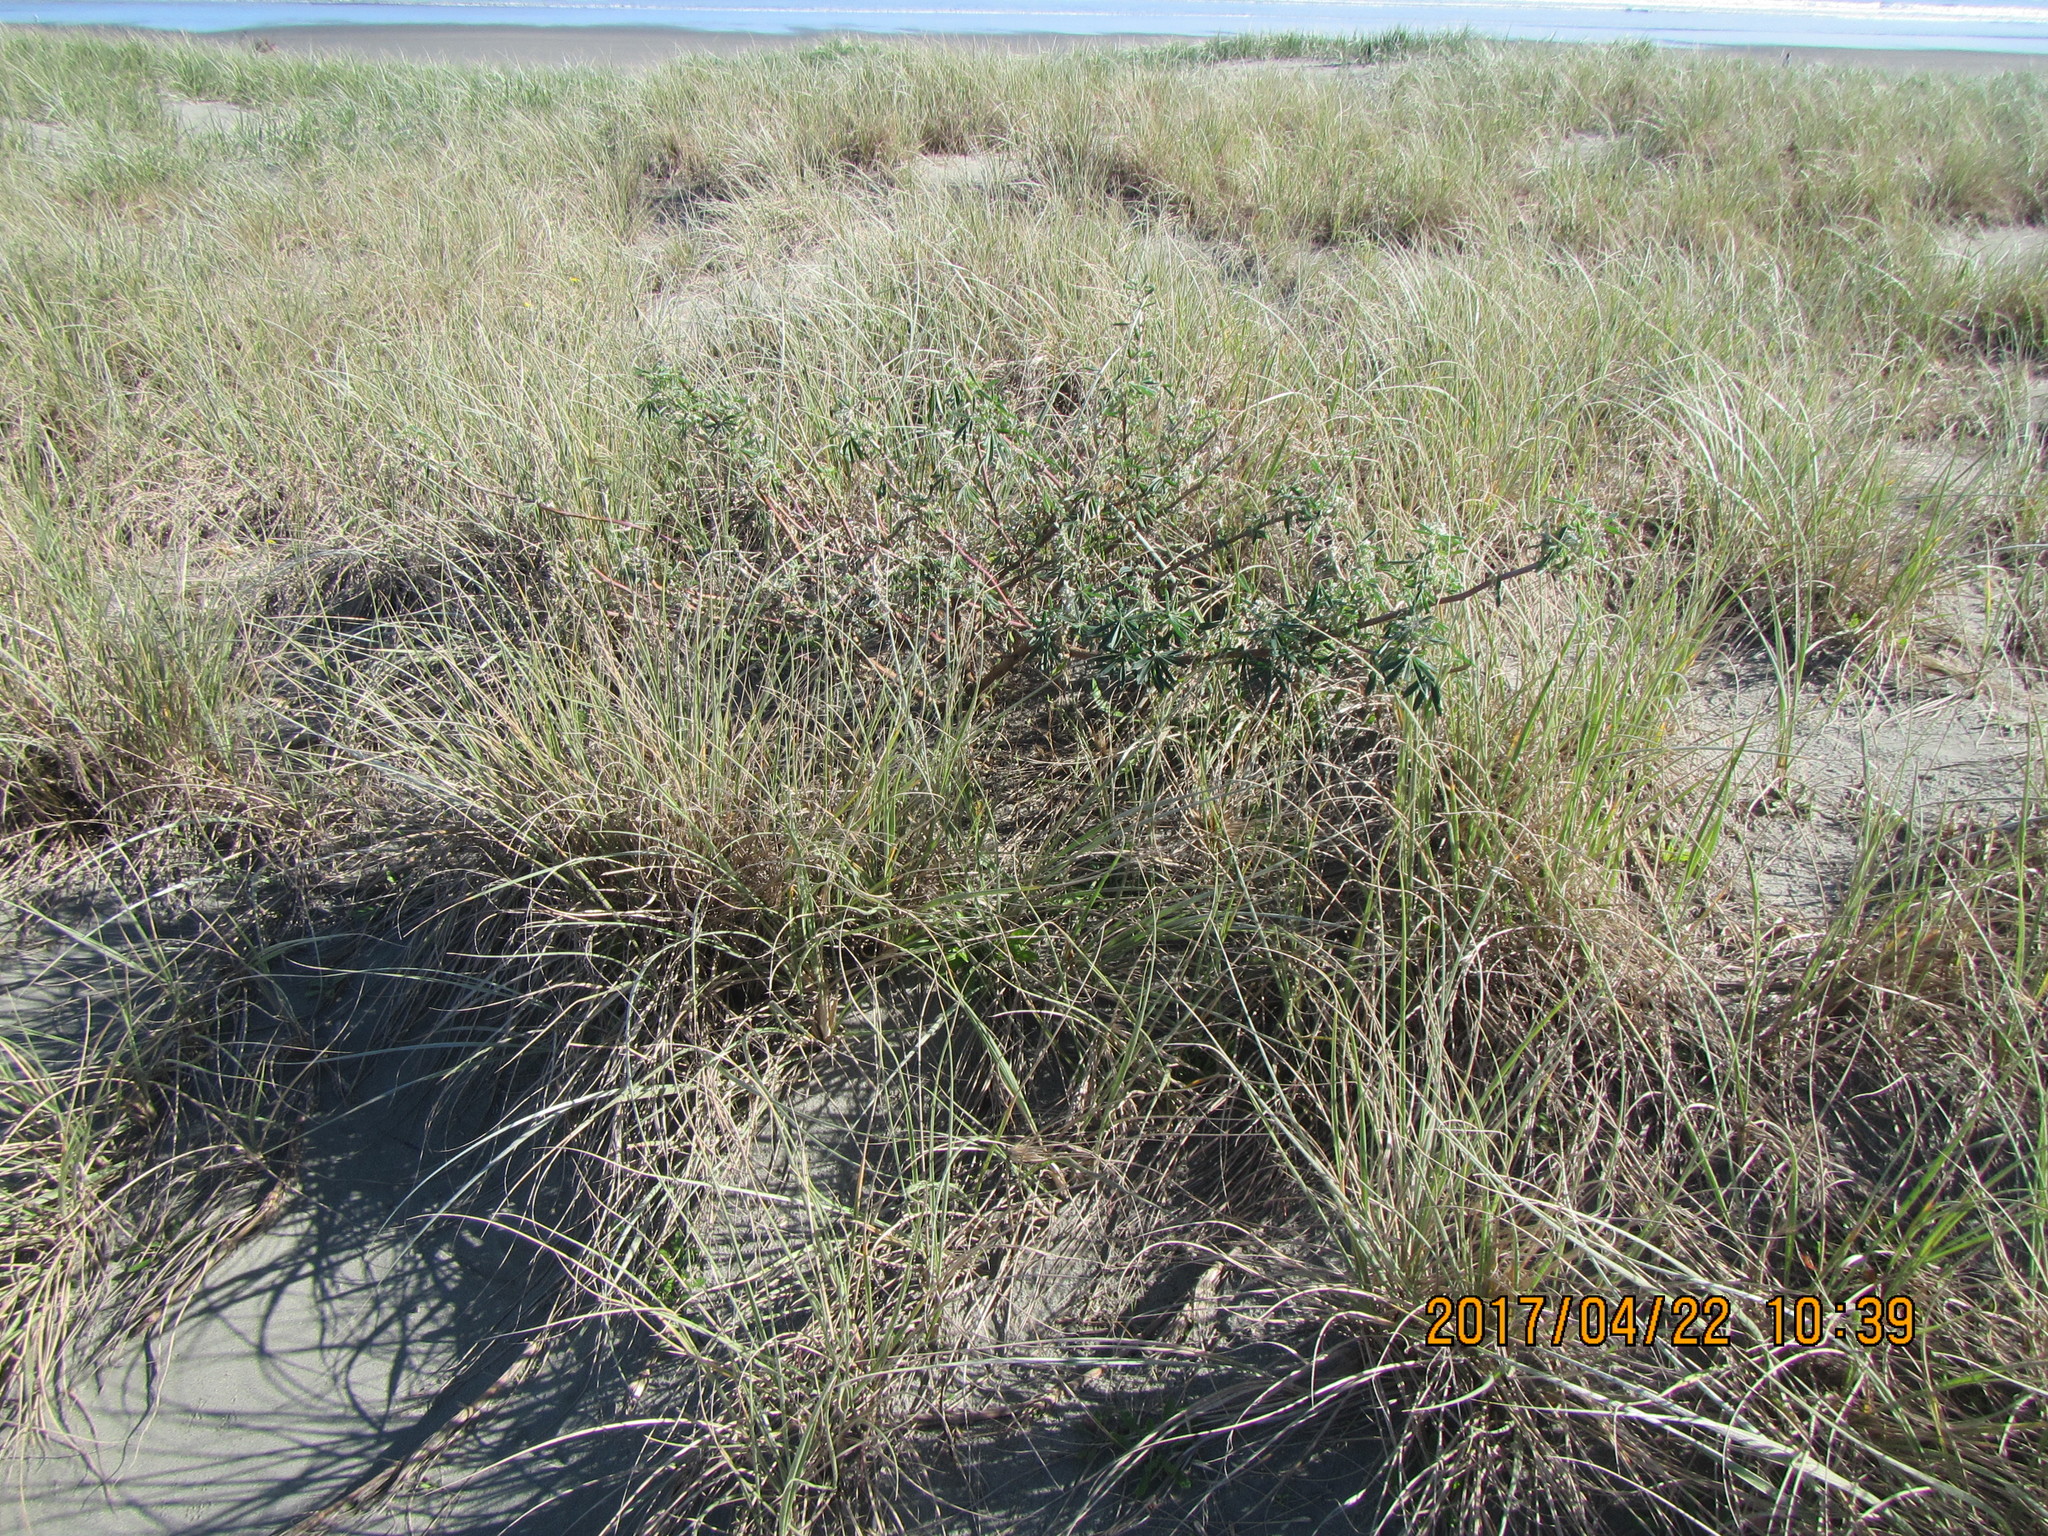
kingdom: Plantae
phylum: Tracheophyta
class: Magnoliopsida
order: Fabales
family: Fabaceae
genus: Lupinus
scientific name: Lupinus arboreus
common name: Yellow bush lupine
